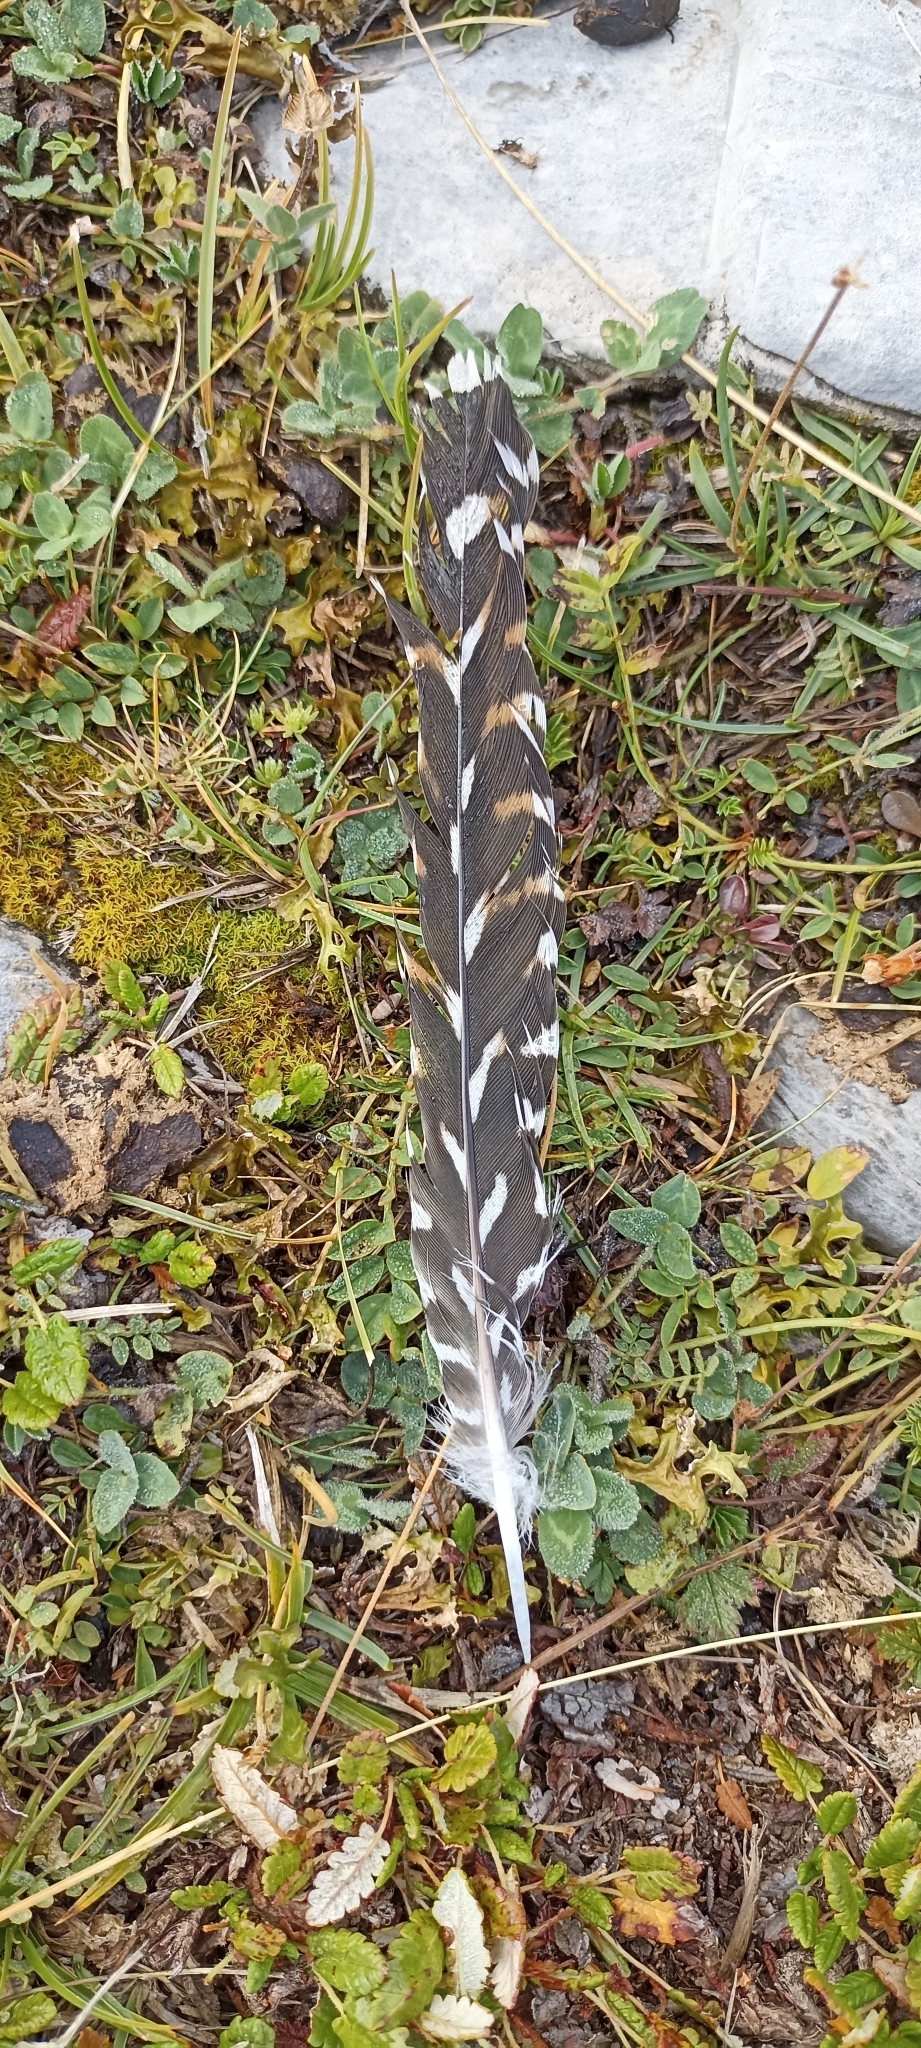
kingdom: Animalia
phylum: Chordata
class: Aves
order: Cuculiformes
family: Cuculidae
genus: Cuculus
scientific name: Cuculus canorus
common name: Common cuckoo
